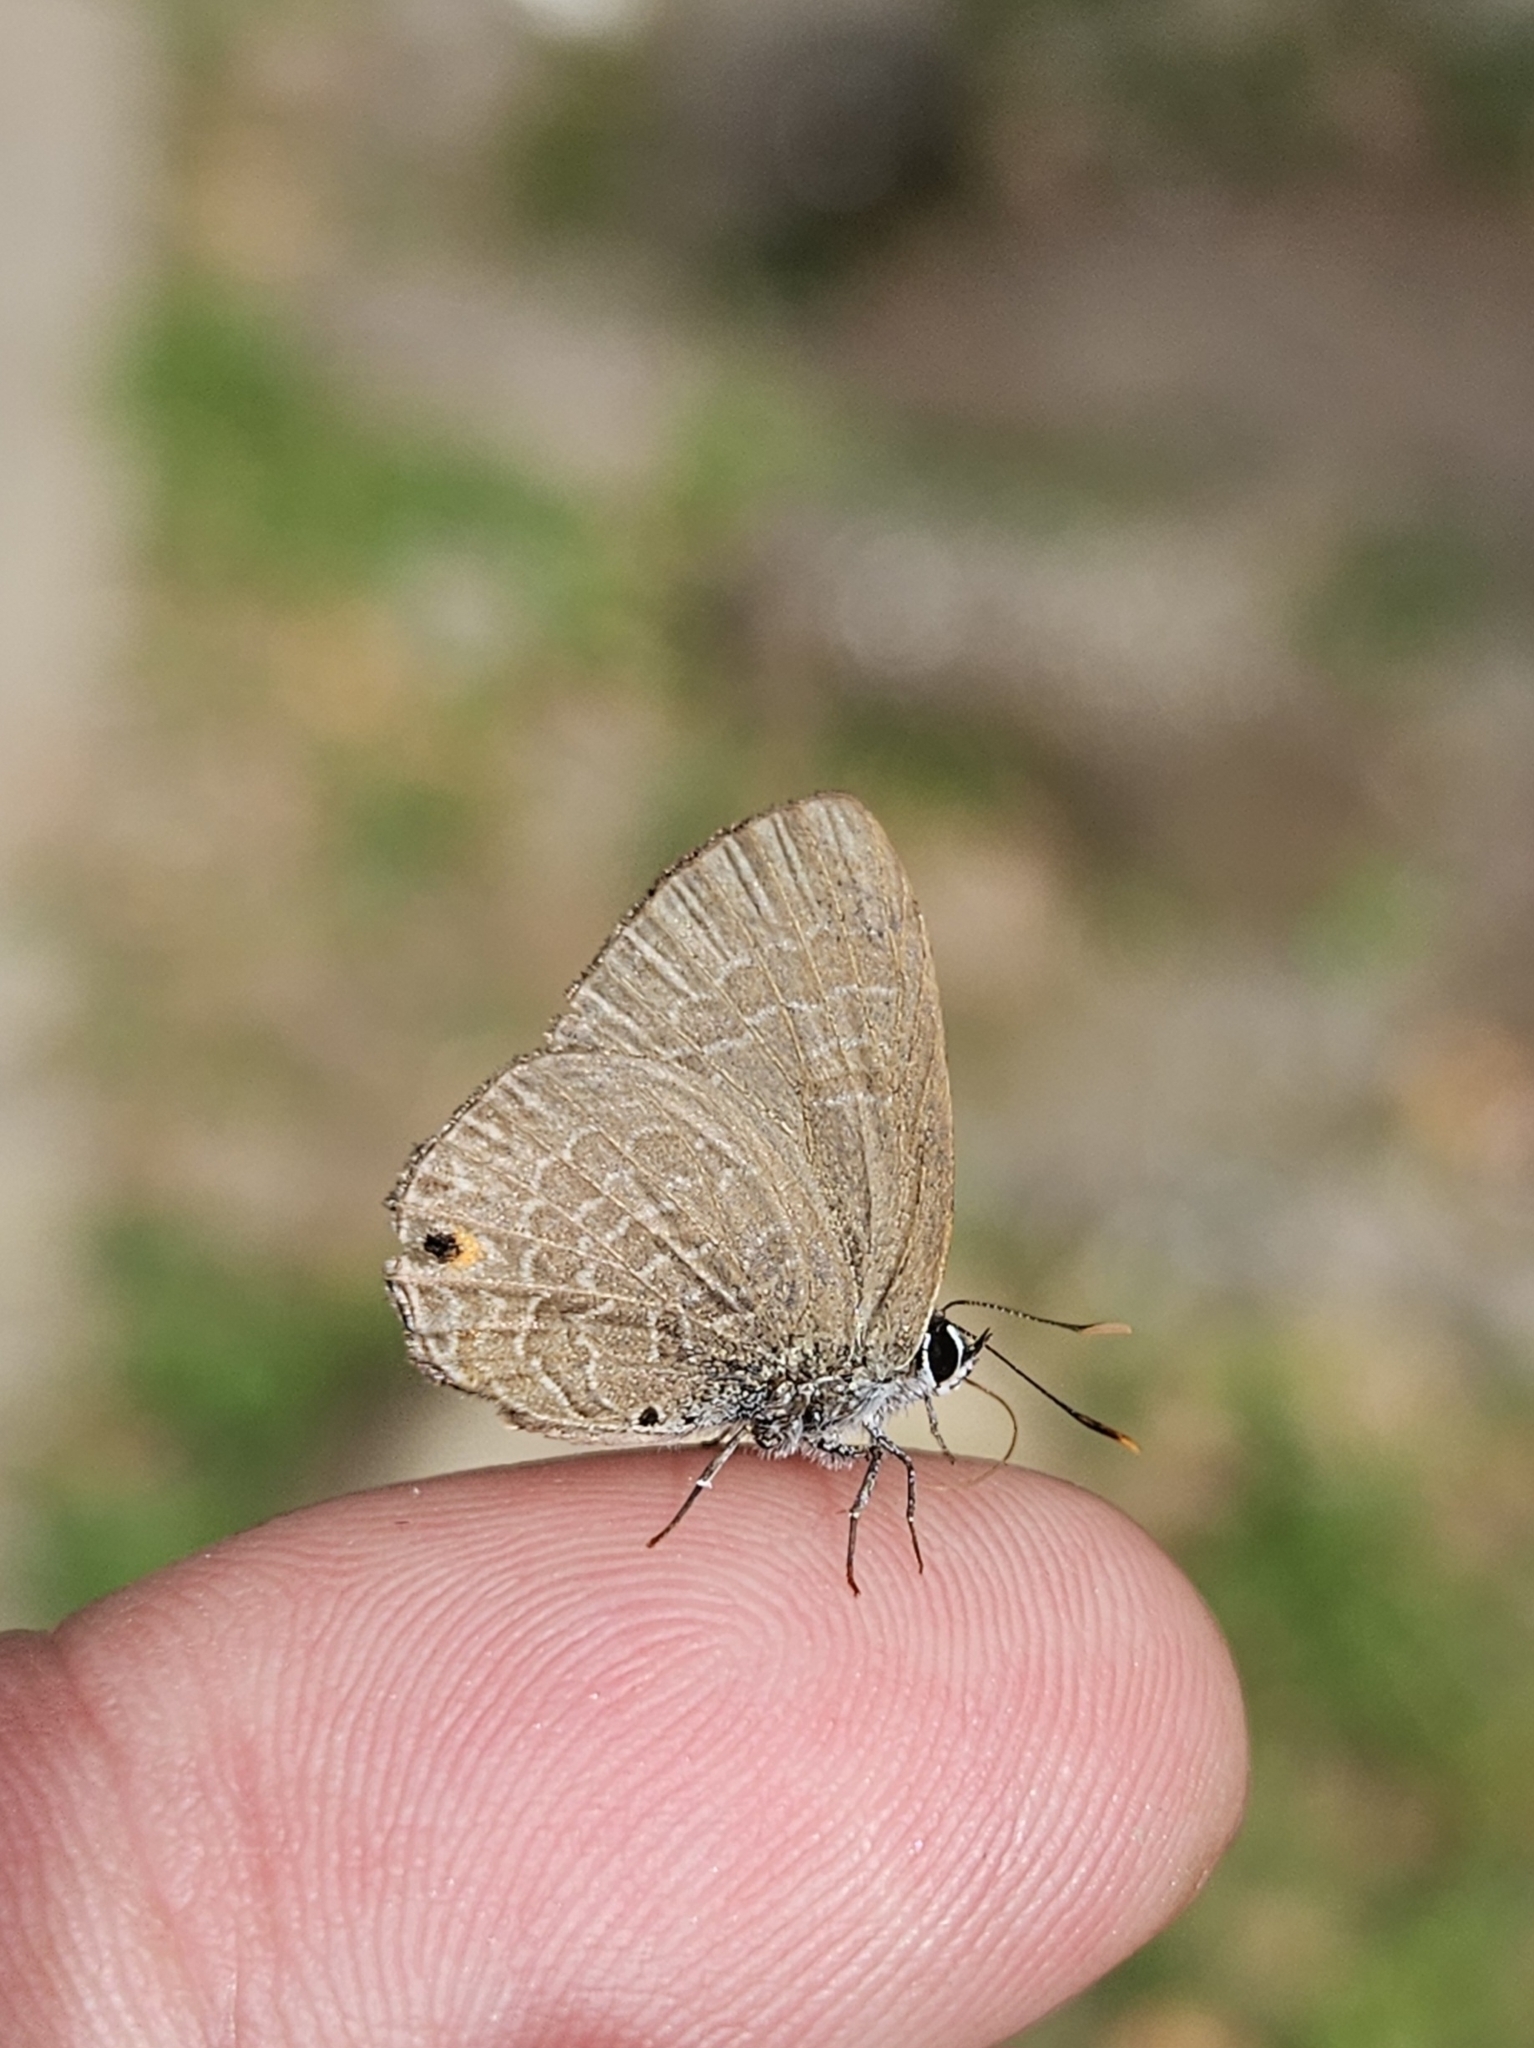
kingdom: Animalia
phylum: Arthropoda
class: Insecta
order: Lepidoptera
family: Lycaenidae
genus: Anthene
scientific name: Anthene emolus
